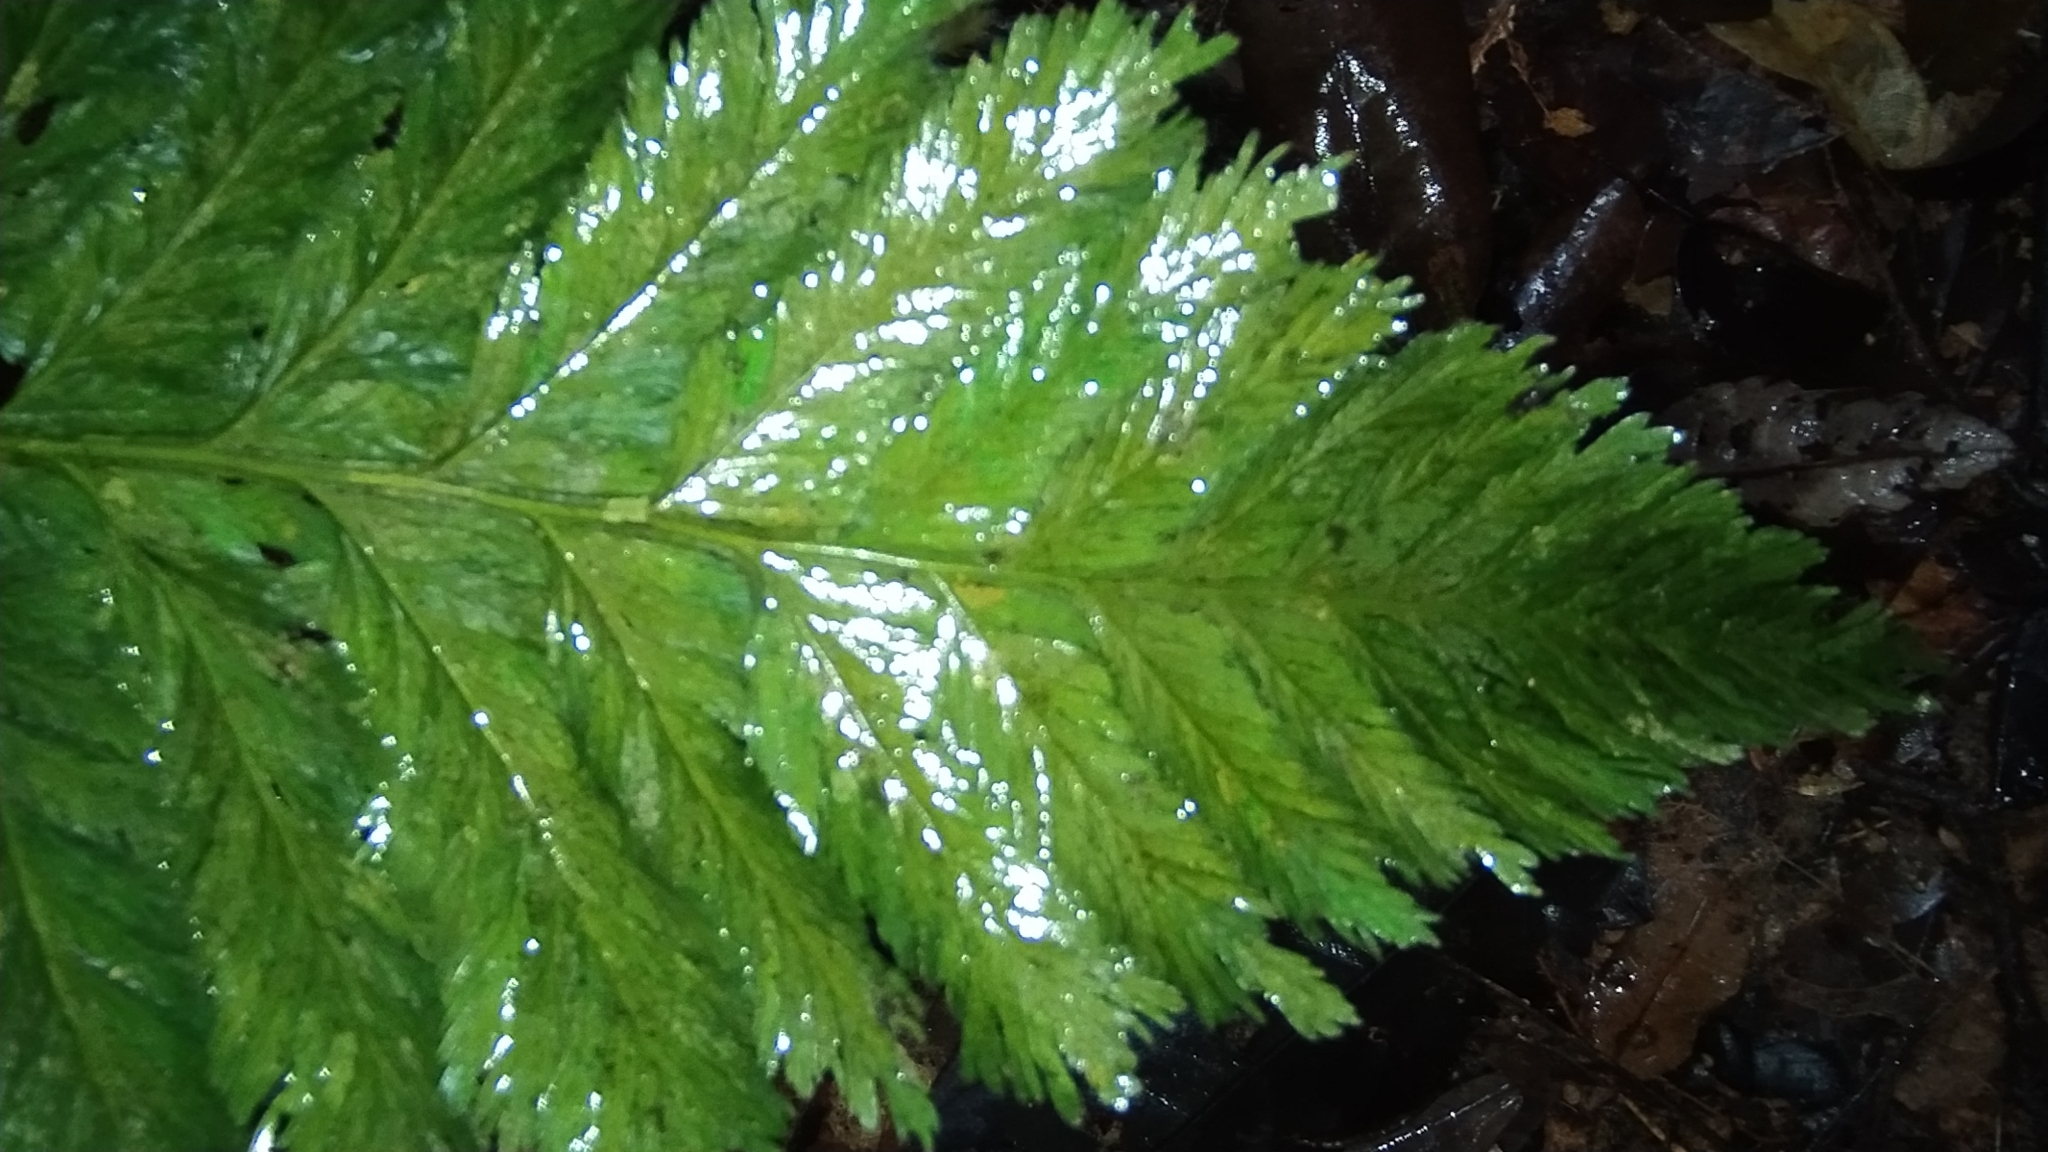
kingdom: Plantae
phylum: Tracheophyta
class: Polypodiopsida
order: Hymenophyllales
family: Hymenophyllaceae
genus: Trichomanes
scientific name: Trichomanes elegans
